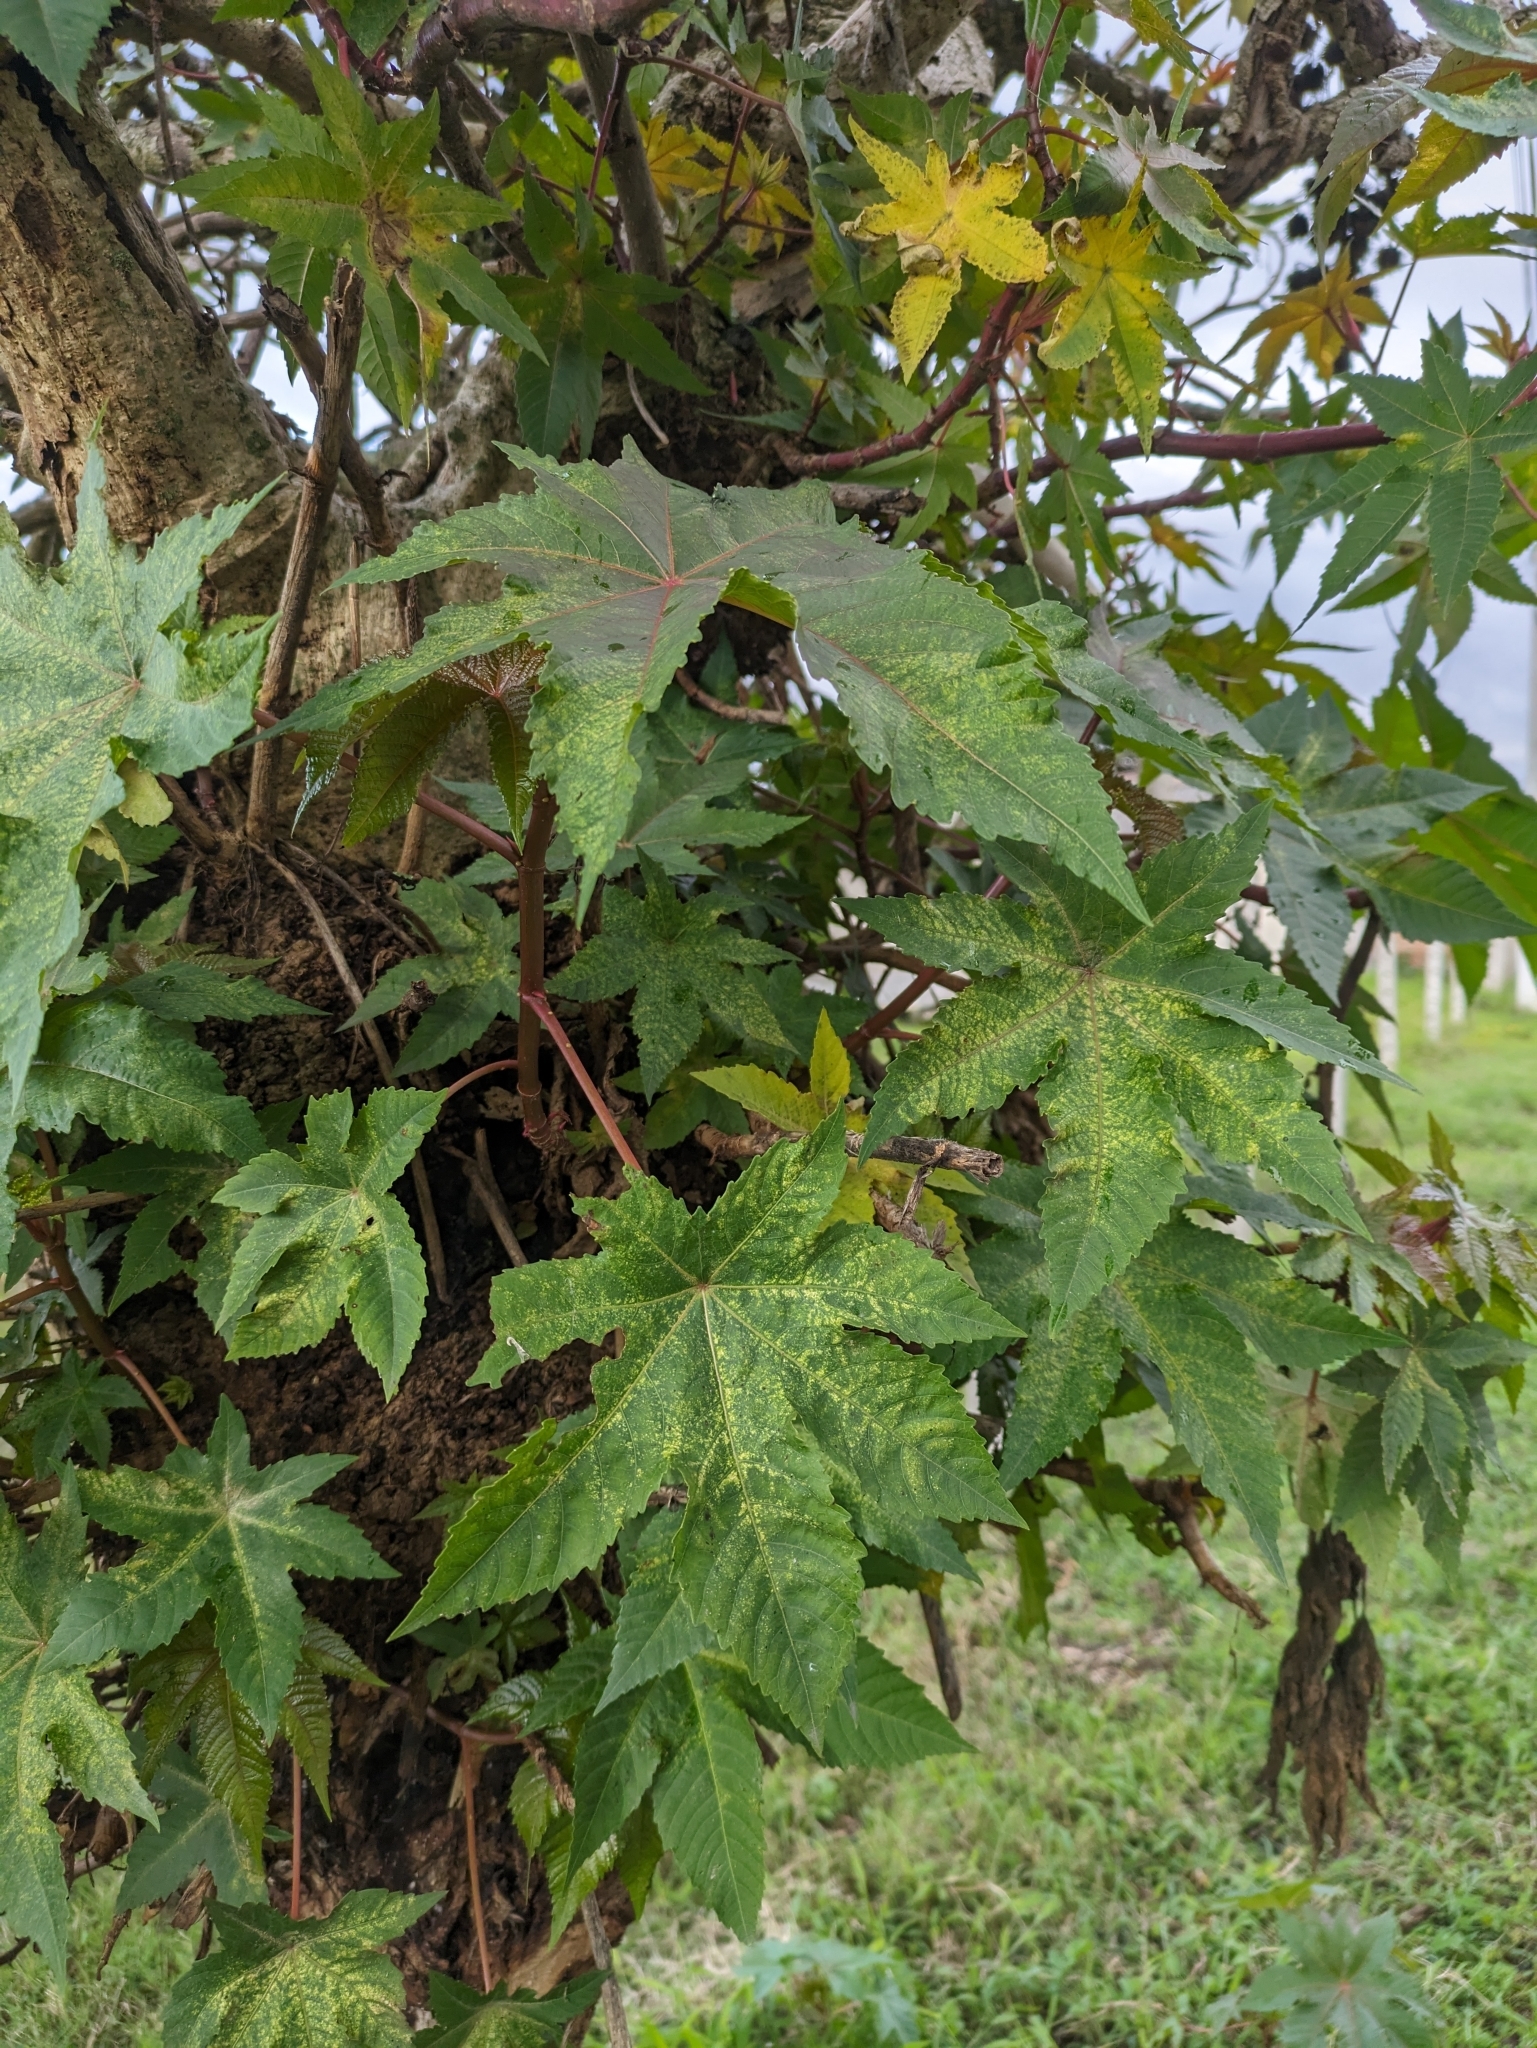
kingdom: Plantae
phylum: Tracheophyta
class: Magnoliopsida
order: Malpighiales
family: Euphorbiaceae
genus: Ricinus
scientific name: Ricinus communis
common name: Castor-oil-plant
